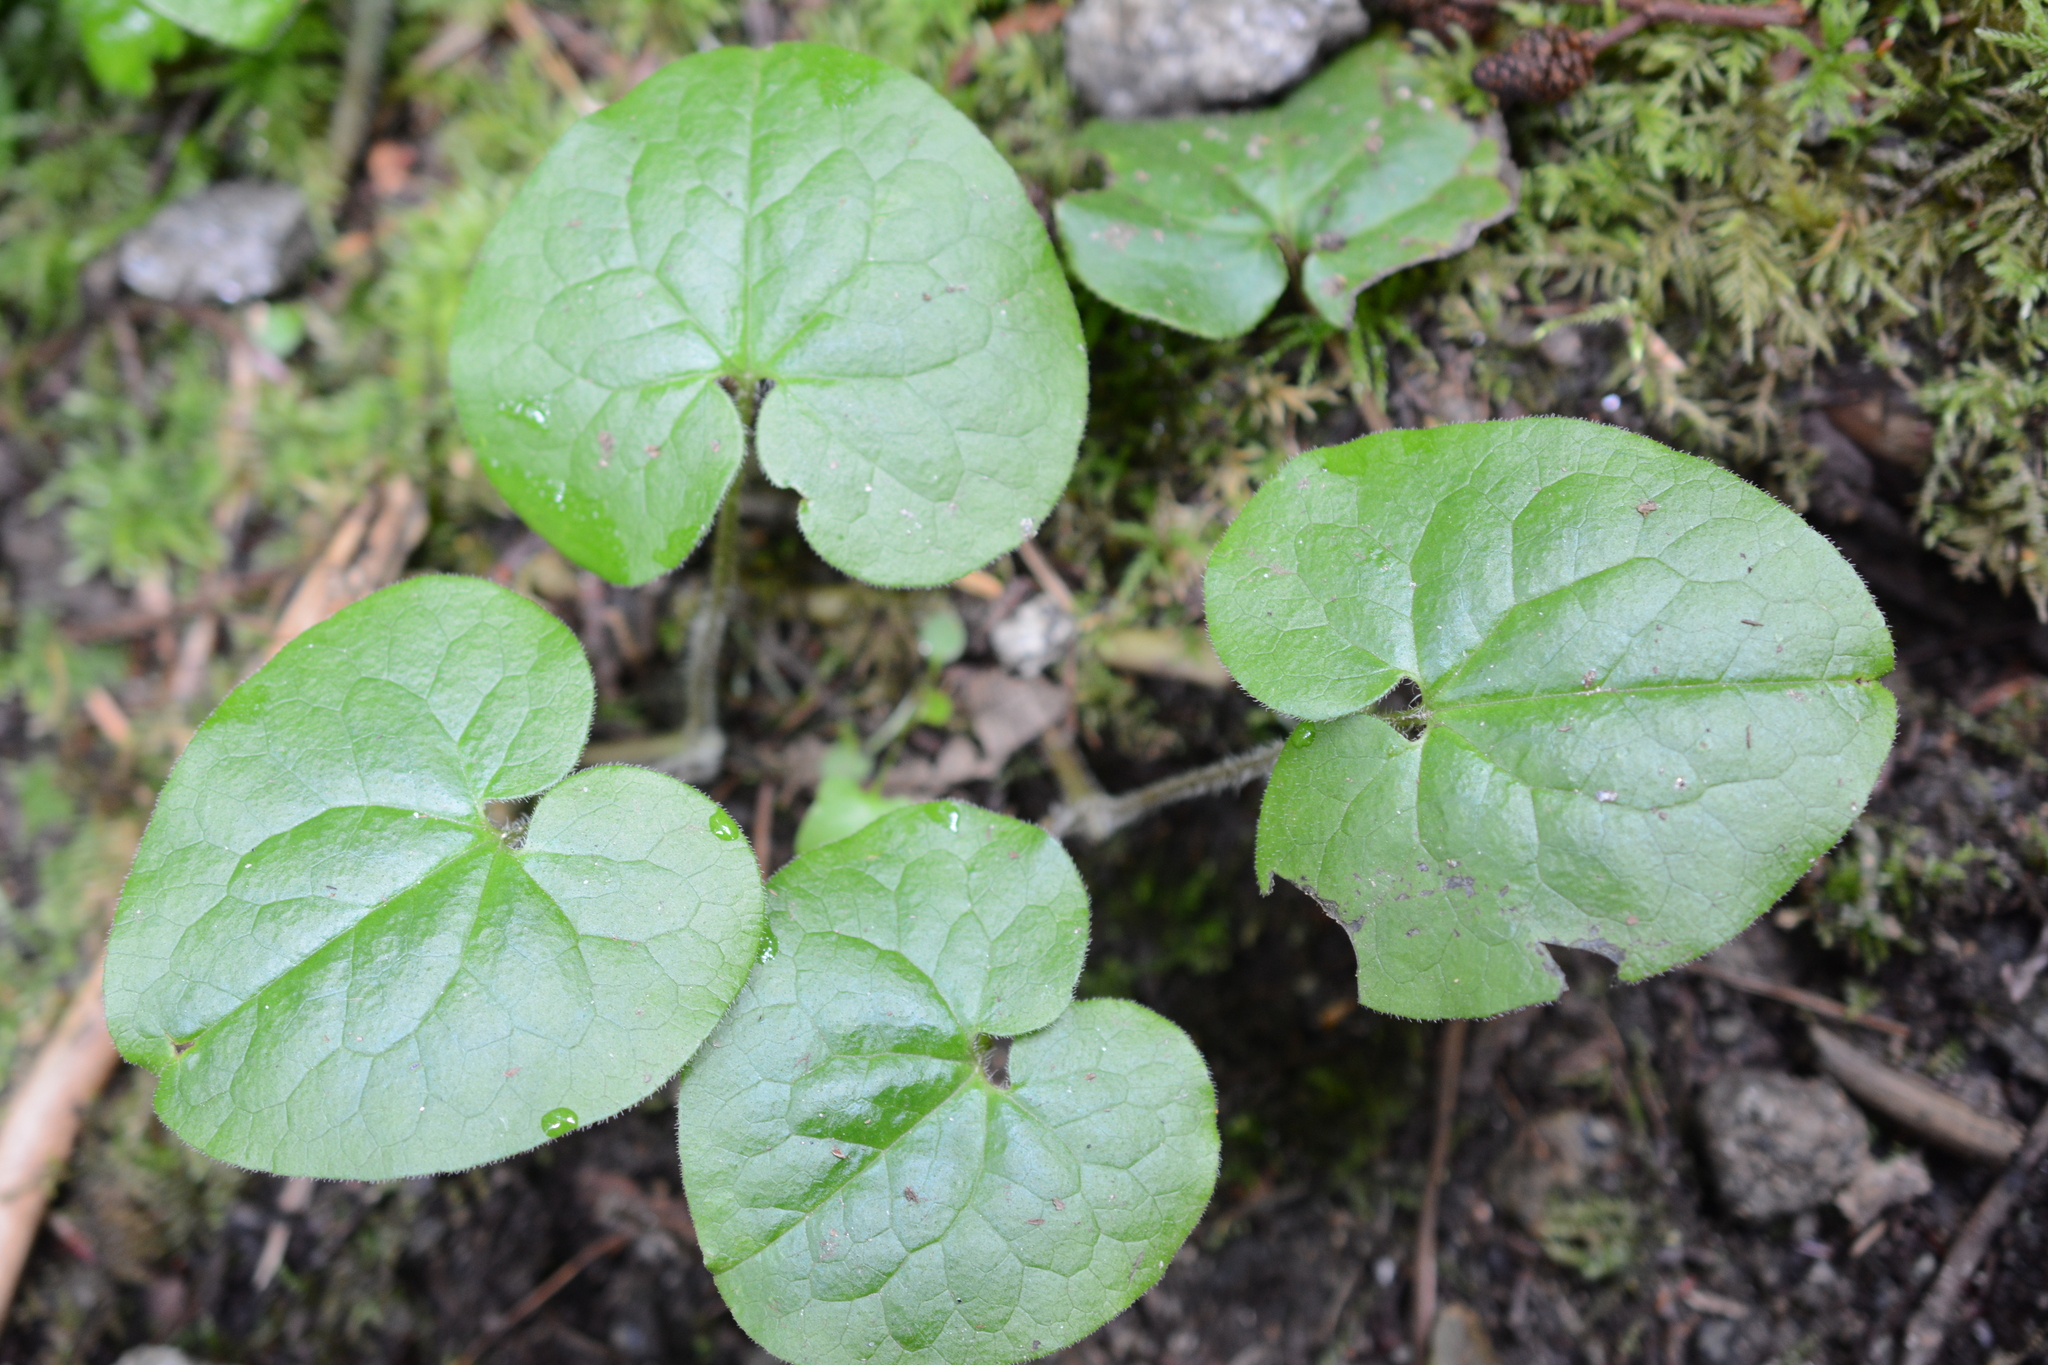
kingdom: Plantae
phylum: Tracheophyta
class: Magnoliopsida
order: Piperales
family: Aristolochiaceae
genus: Asarum
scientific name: Asarum caudatum
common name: Wild ginger
